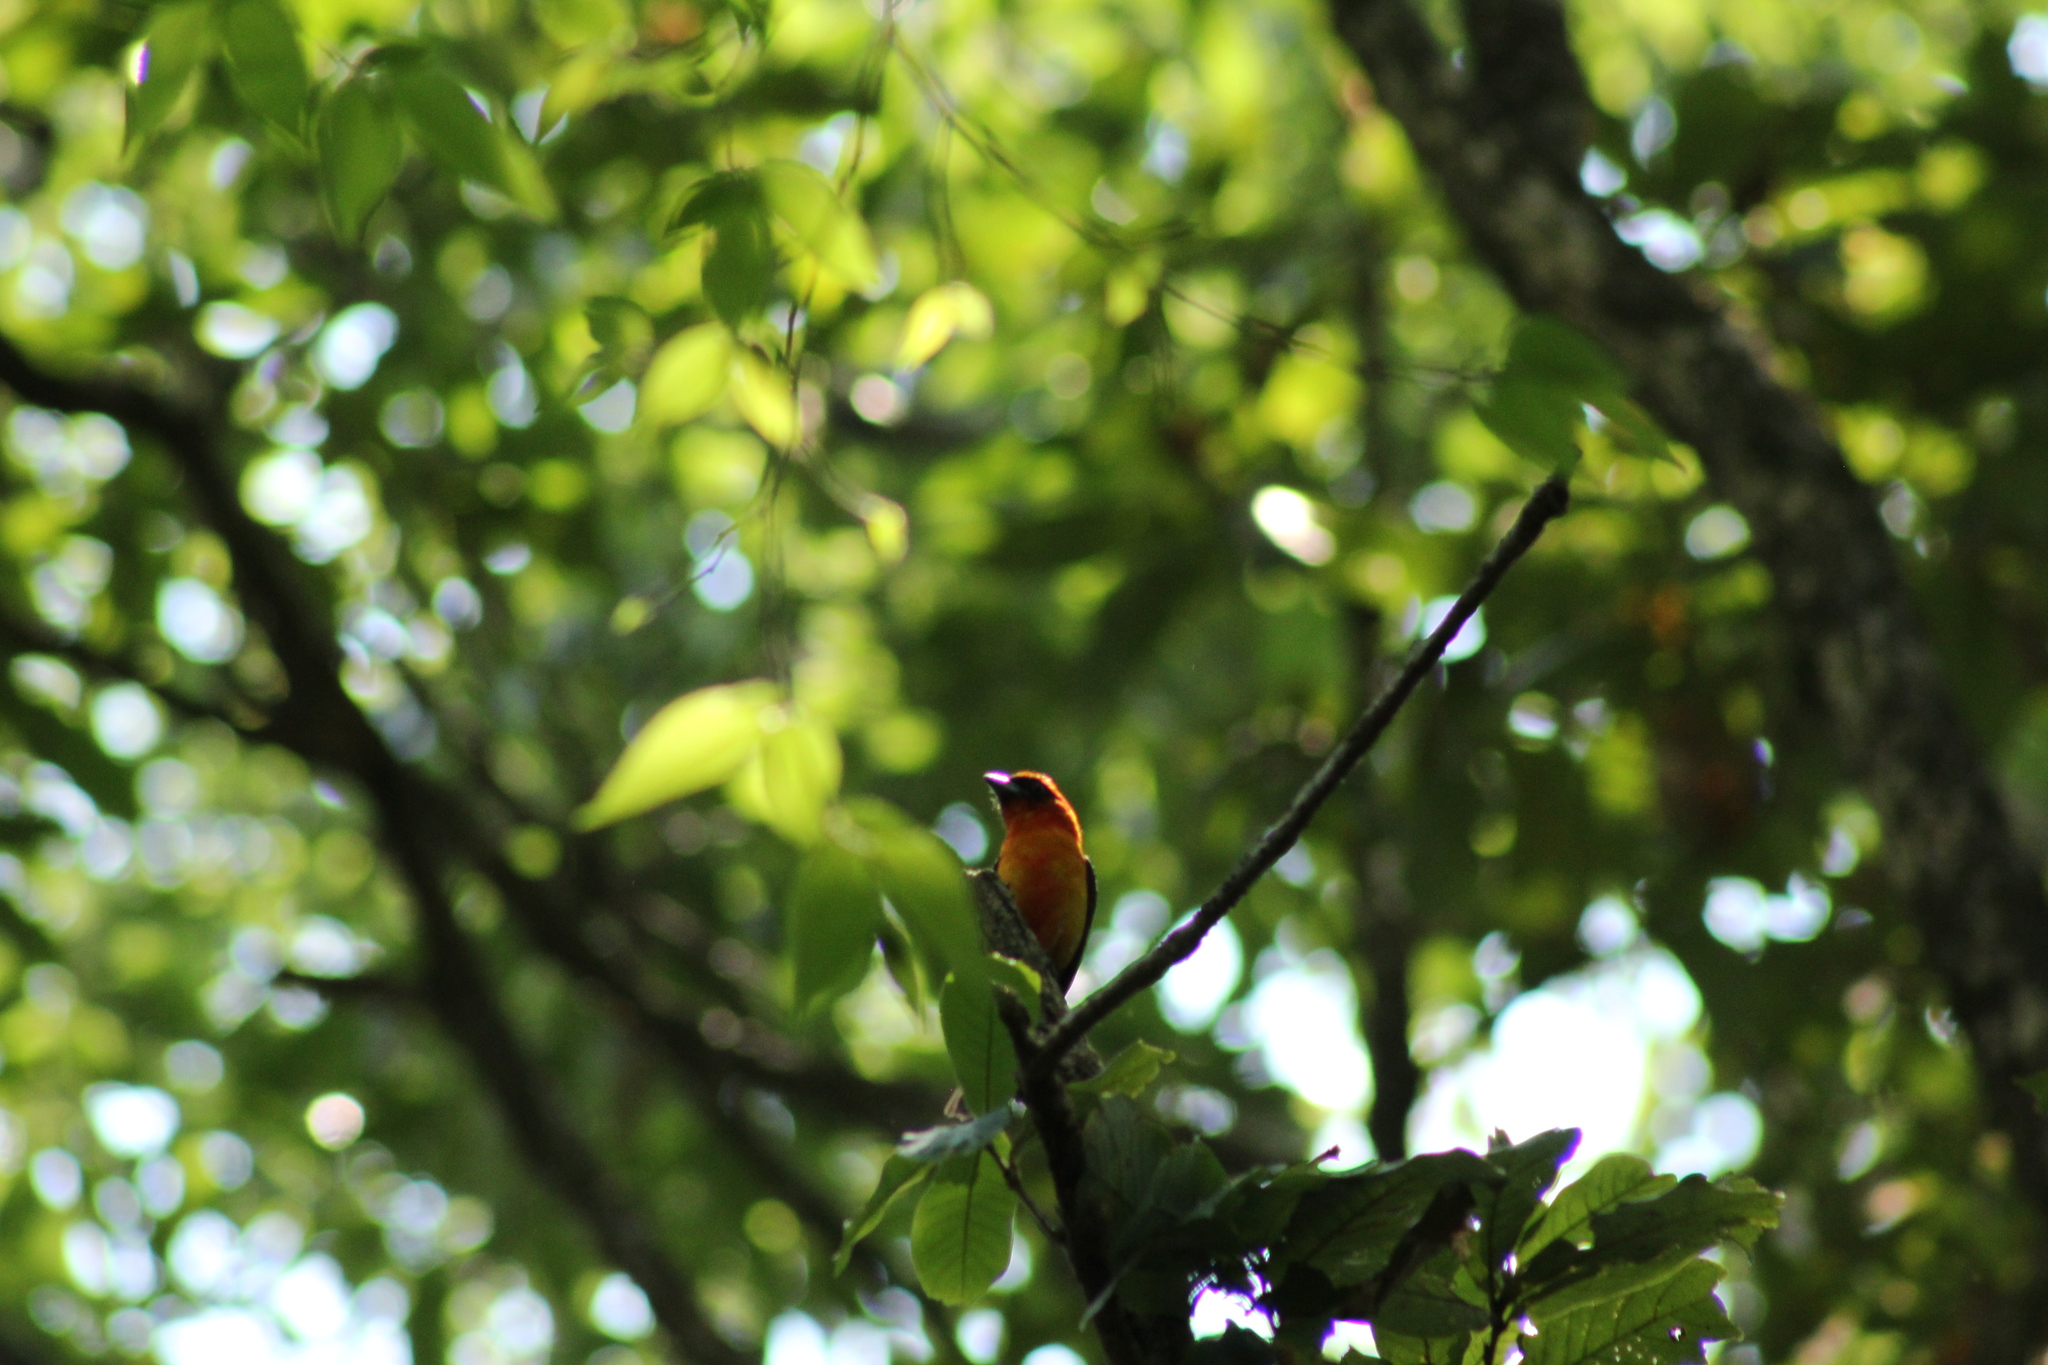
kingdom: Animalia
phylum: Chordata
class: Aves
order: Passeriformes
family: Cardinalidae
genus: Piranga
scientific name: Piranga leucoptera
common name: White-winged tanager
